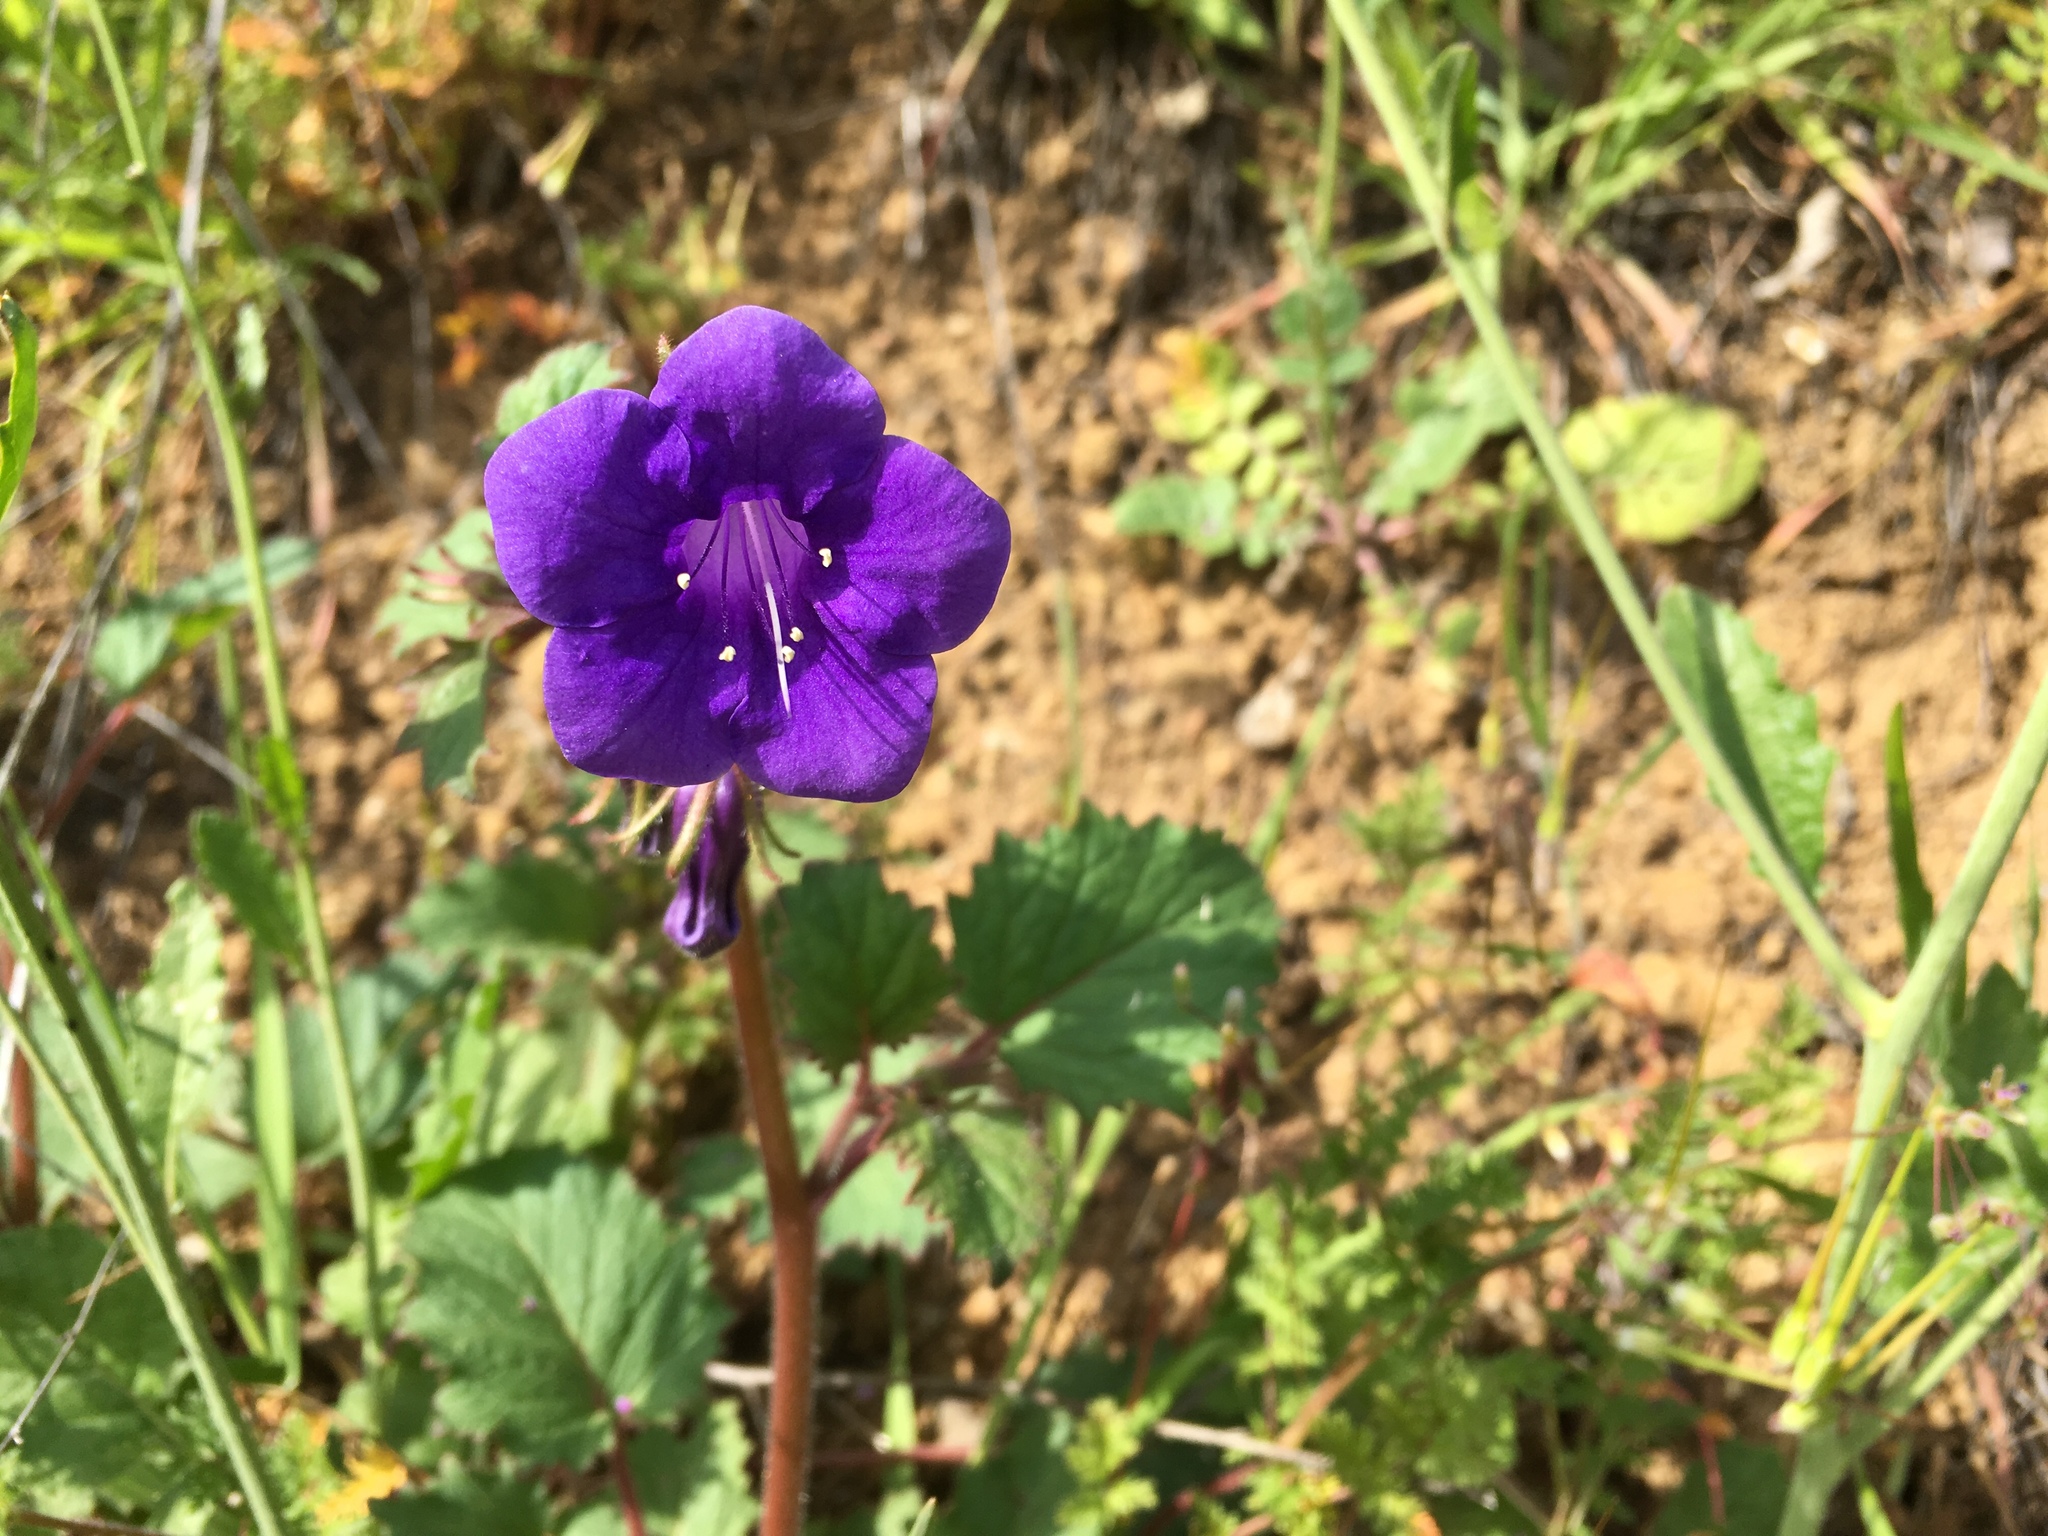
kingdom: Plantae
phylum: Tracheophyta
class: Magnoliopsida
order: Boraginales
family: Hydrophyllaceae
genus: Phacelia
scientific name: Phacelia minor
